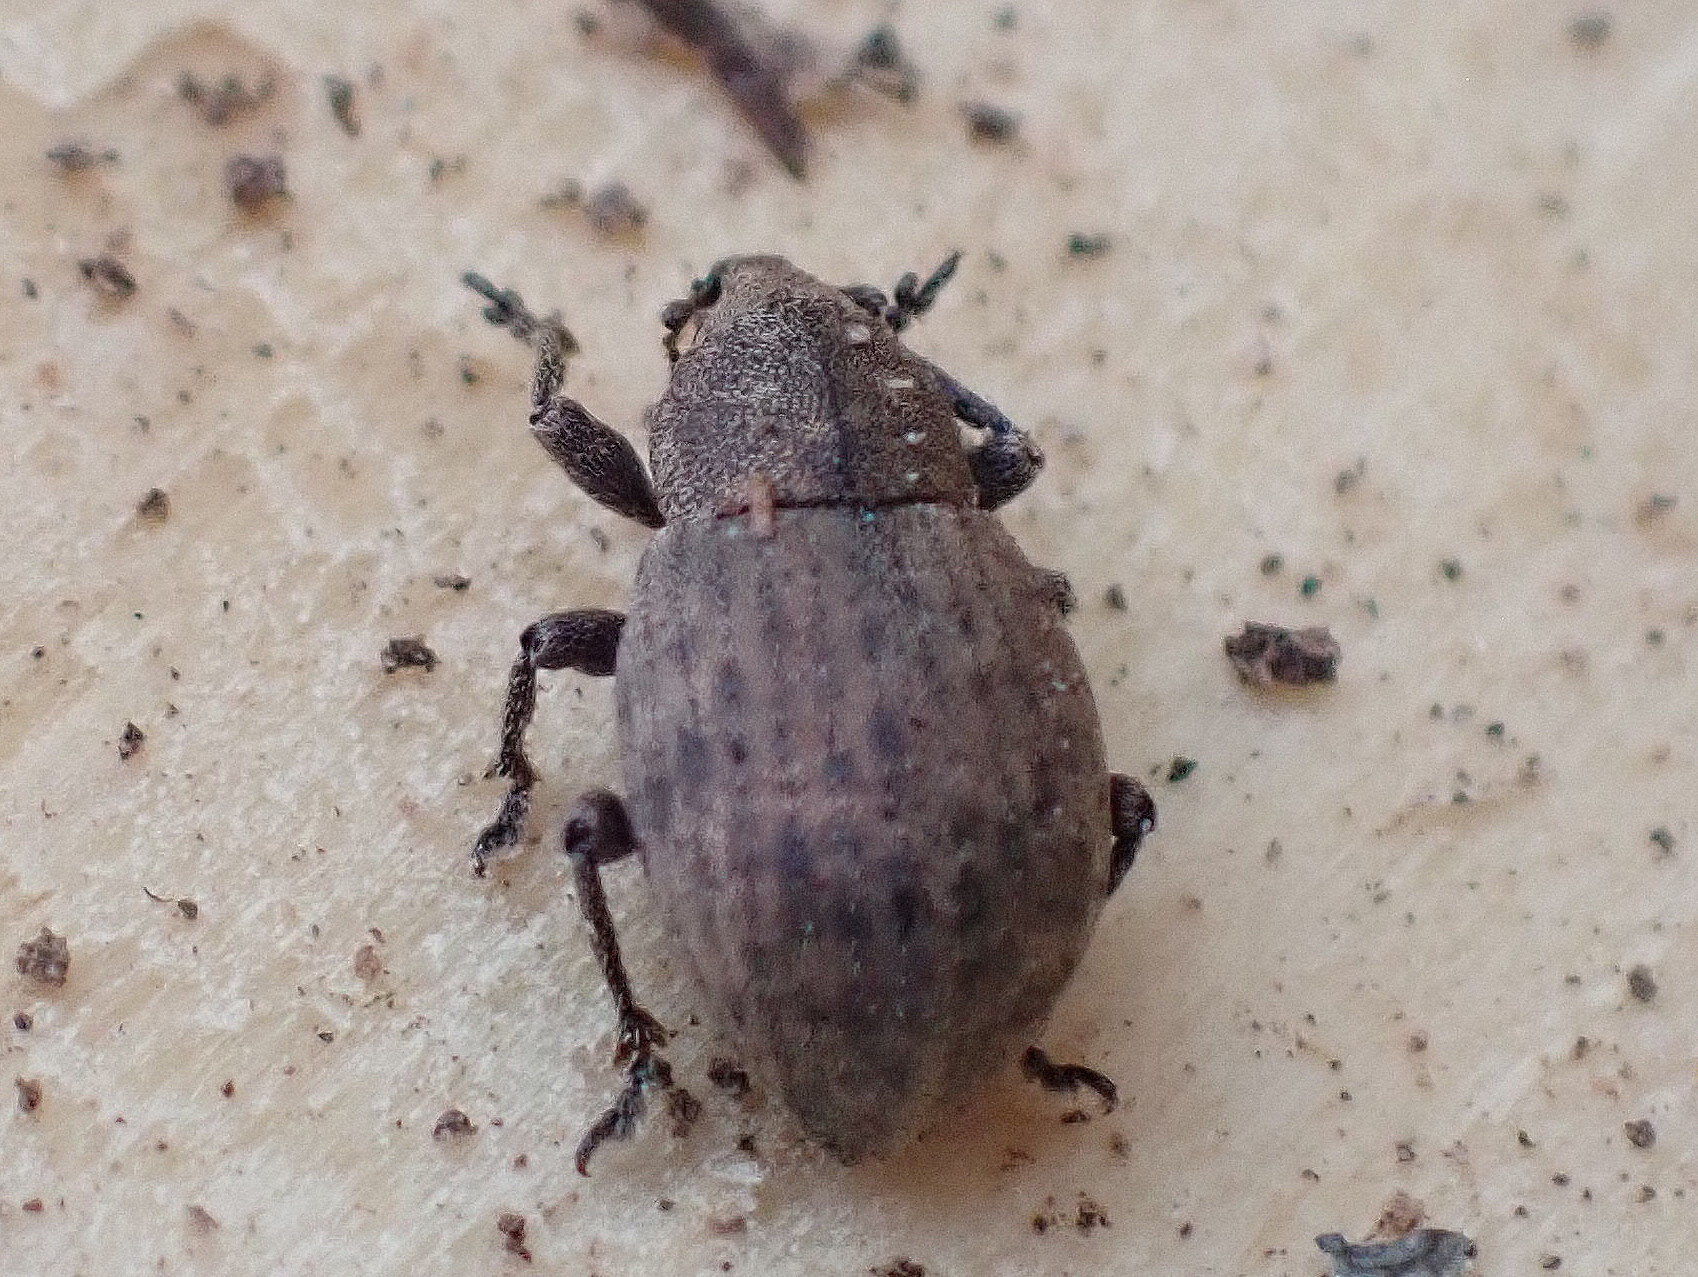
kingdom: Animalia
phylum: Arthropoda
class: Insecta
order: Coleoptera
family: Curculionidae
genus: Tropiphorus
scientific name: Tropiphorus terricola
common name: Weevil
